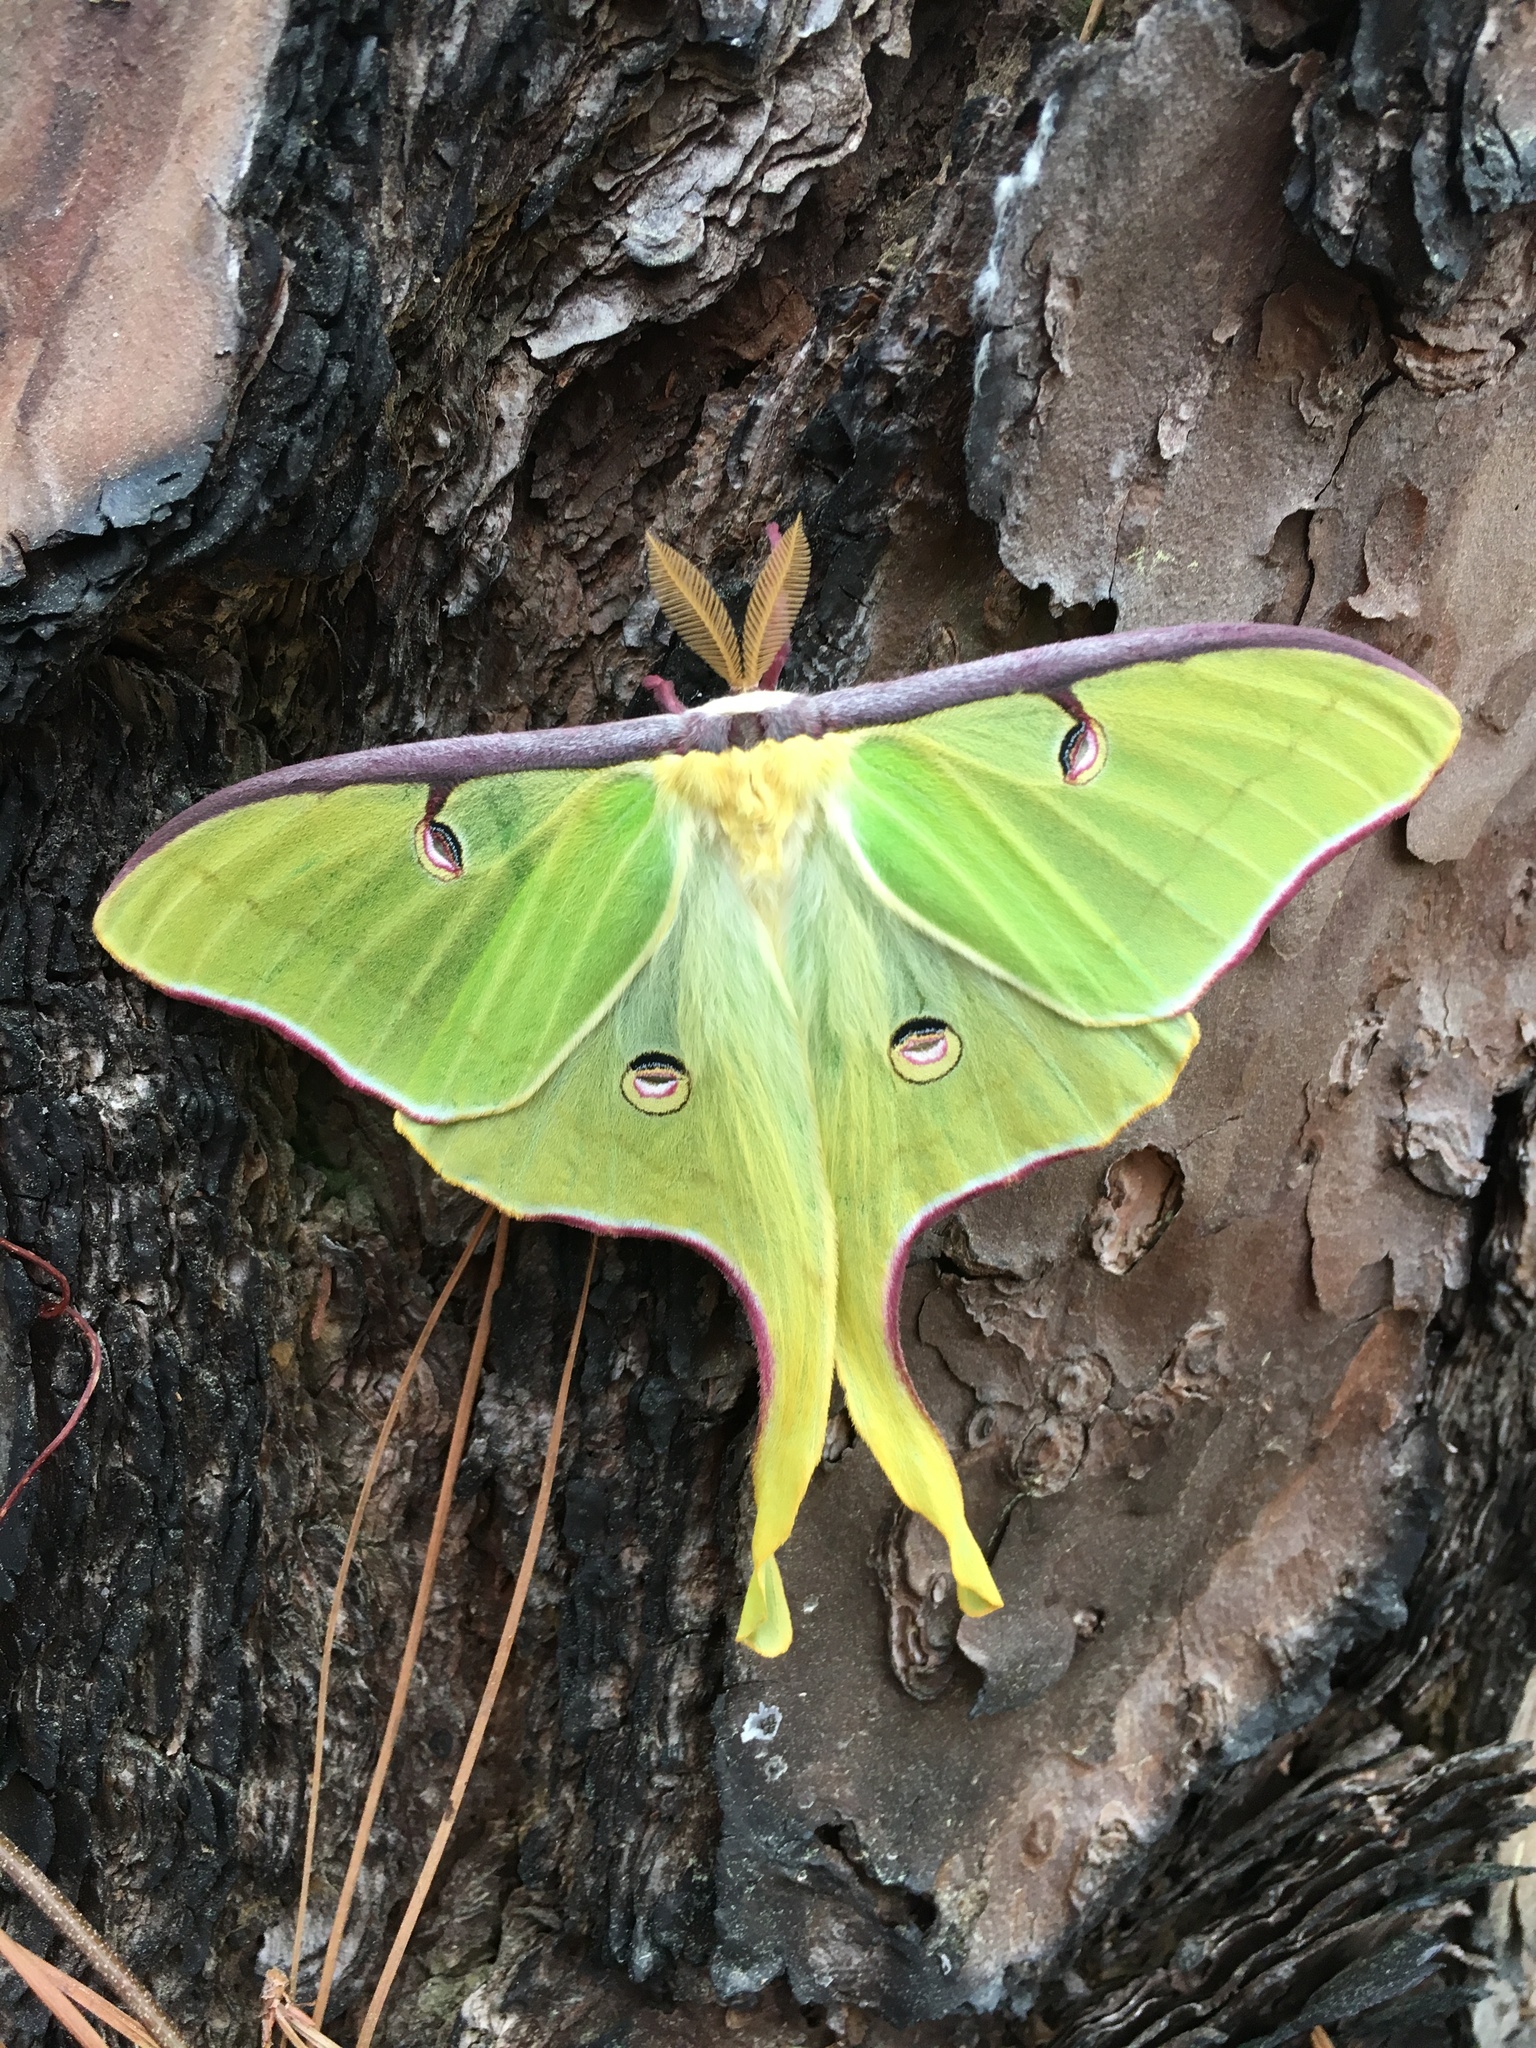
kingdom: Animalia
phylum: Arthropoda
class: Insecta
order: Lepidoptera
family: Saturniidae
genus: Actias
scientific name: Actias luna
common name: Luna moth
